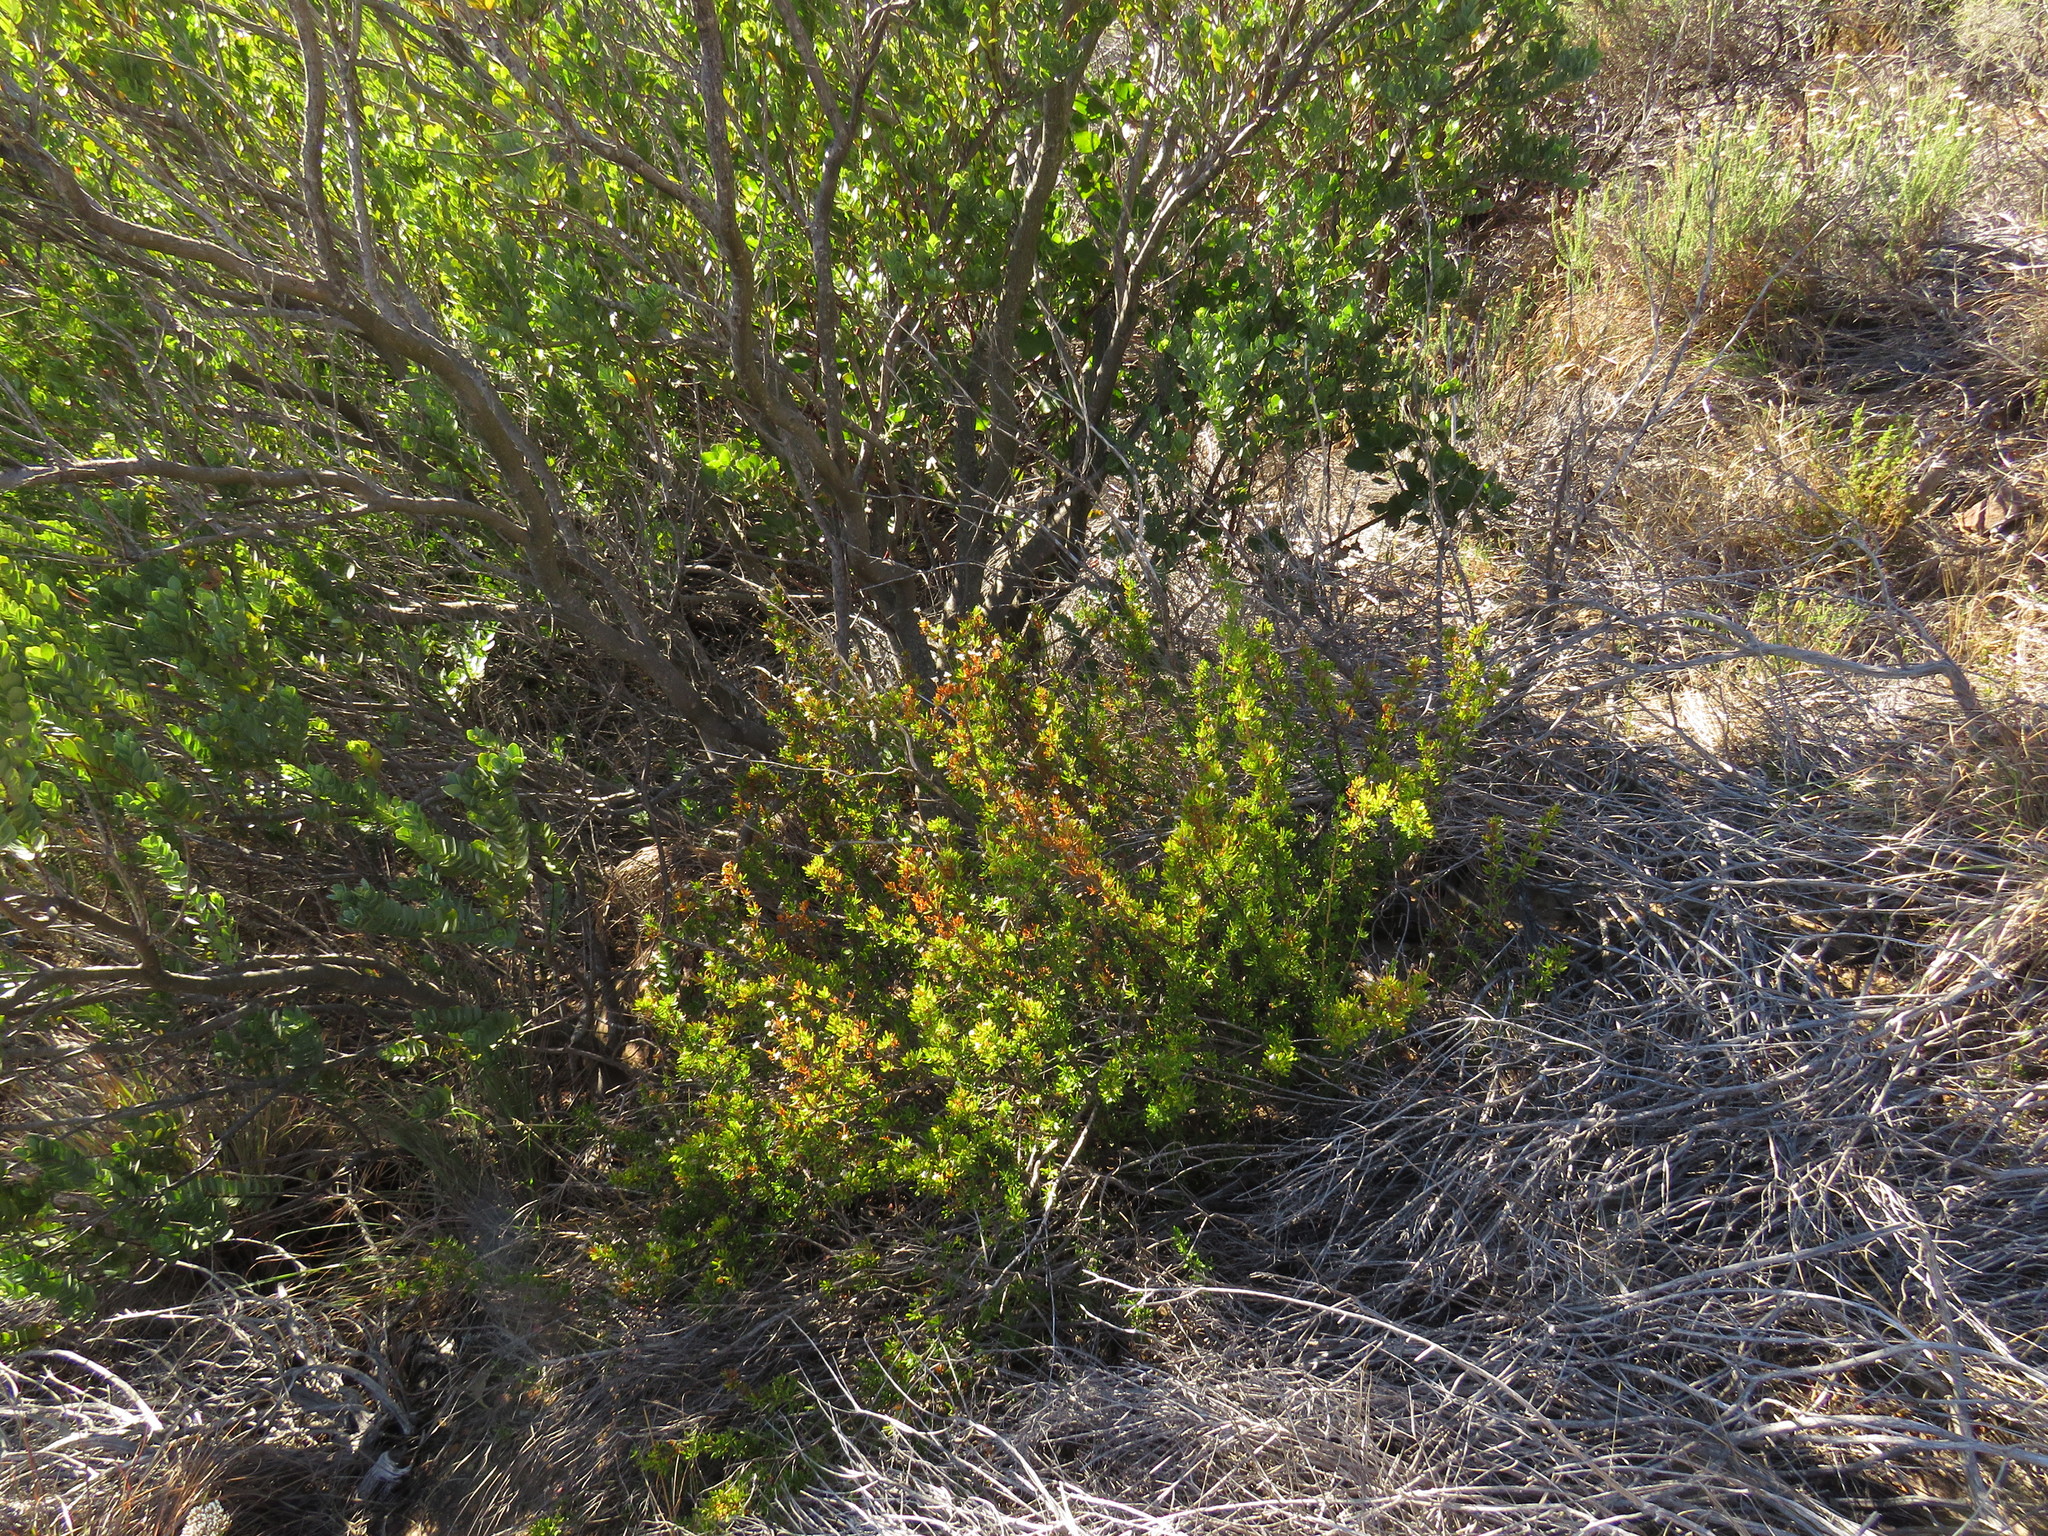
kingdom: Plantae
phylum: Tracheophyta
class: Magnoliopsida
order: Asterales
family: Asteraceae
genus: Felicia
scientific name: Felicia fruticosa
